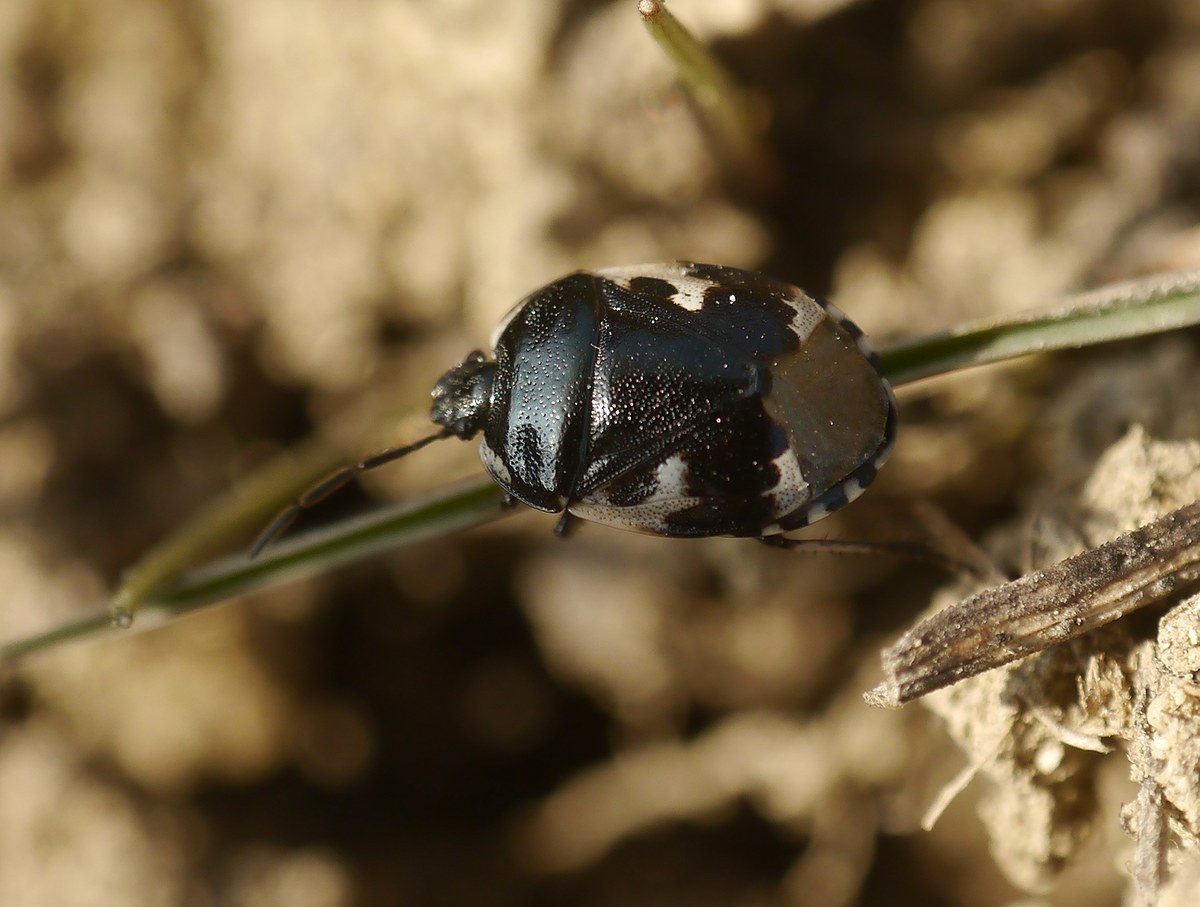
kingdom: Animalia
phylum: Arthropoda
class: Insecta
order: Hemiptera
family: Cydnidae
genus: Tritomegas
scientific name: Tritomegas bicolor
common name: Pied shieldbug
